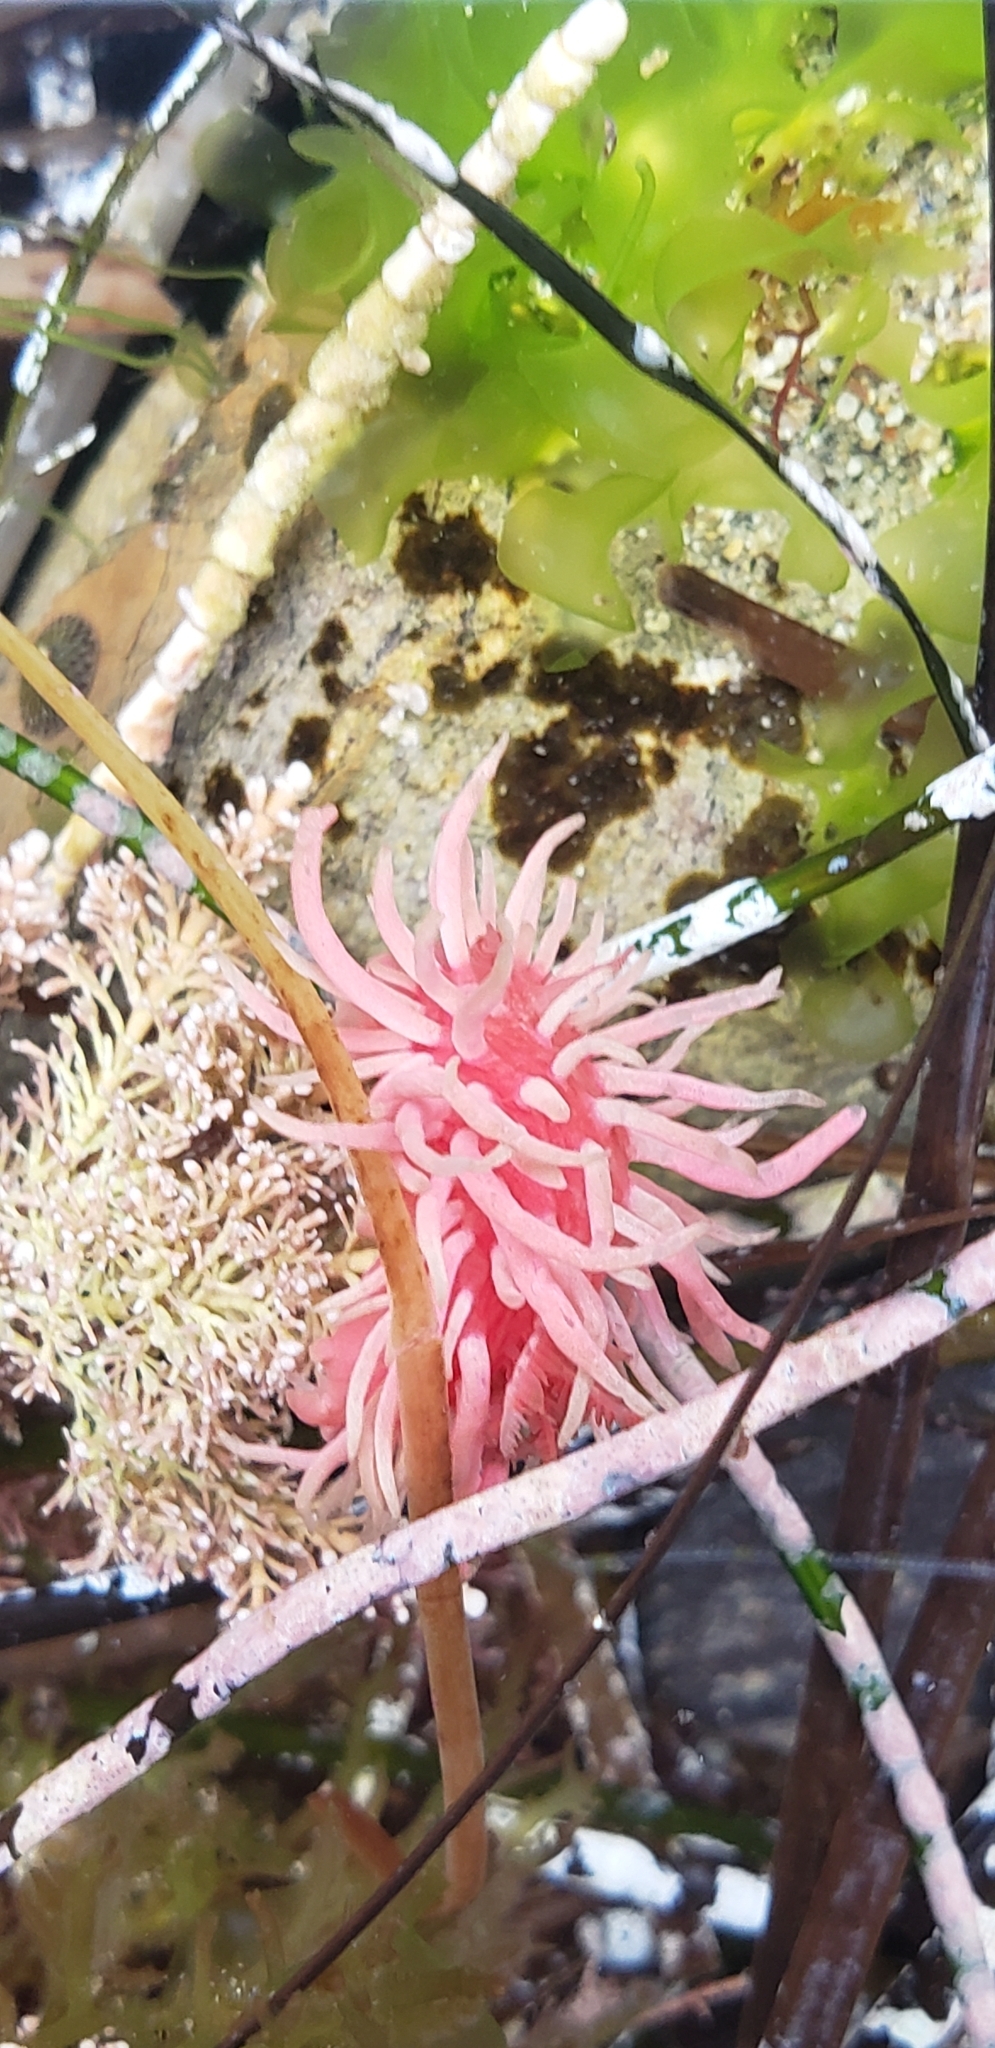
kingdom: Animalia
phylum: Mollusca
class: Gastropoda
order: Nudibranchia
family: Goniodorididae
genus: Okenia
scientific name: Okenia
